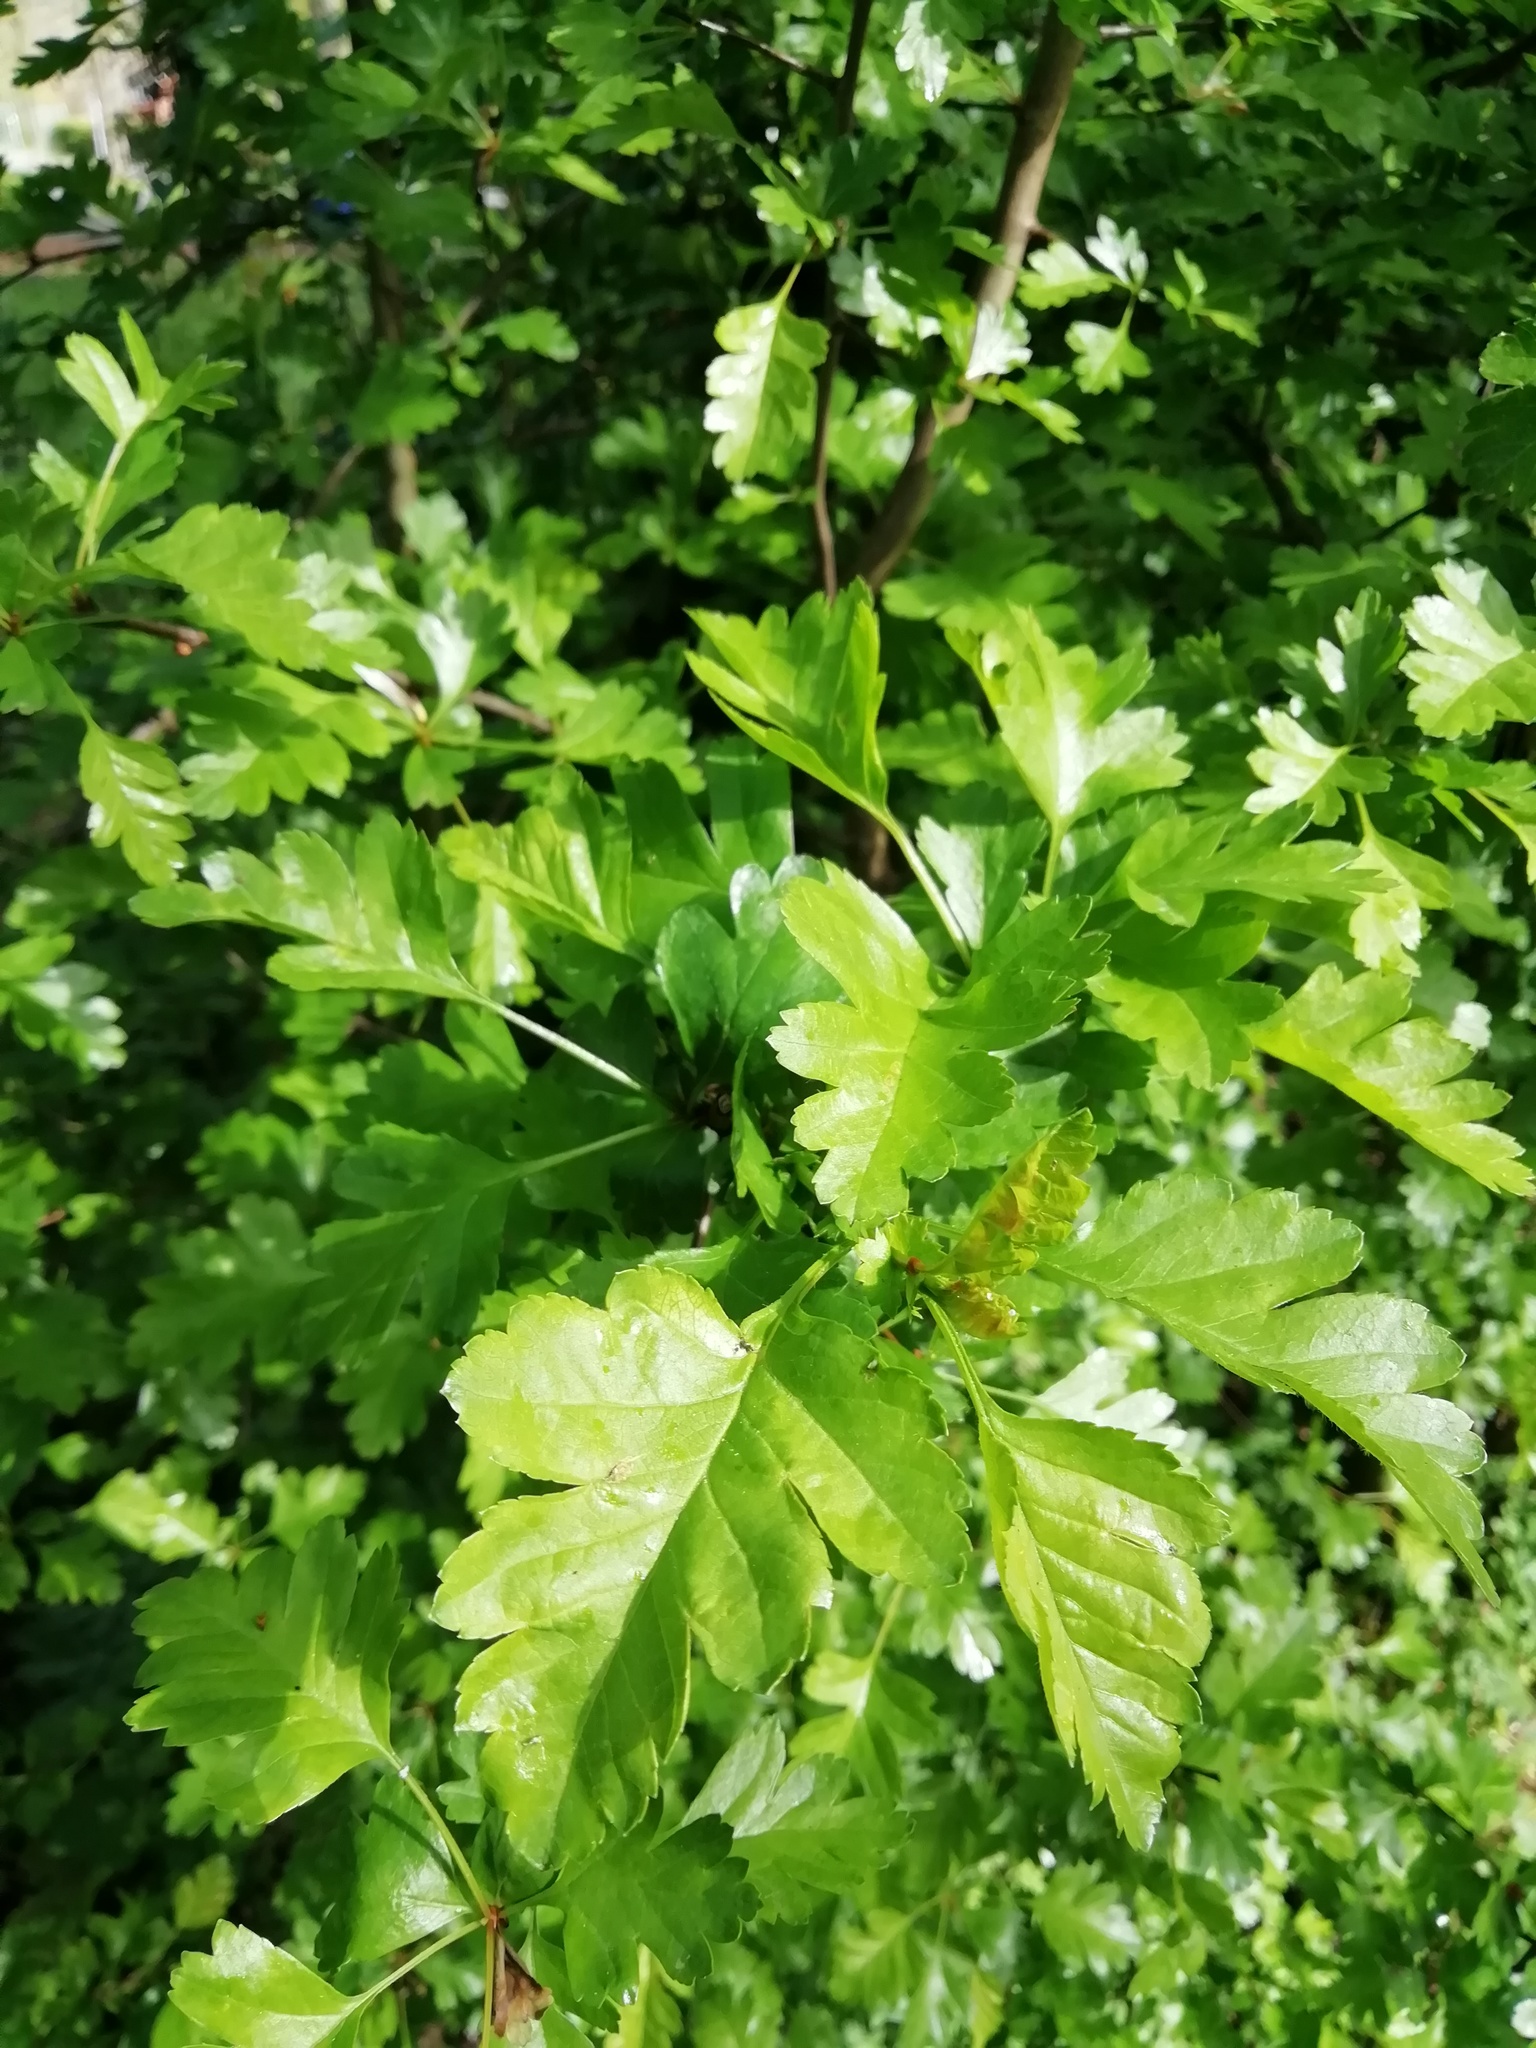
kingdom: Plantae
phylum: Tracheophyta
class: Magnoliopsida
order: Rosales
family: Rosaceae
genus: Crataegus
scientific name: Crataegus monogyna
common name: Hawthorn
